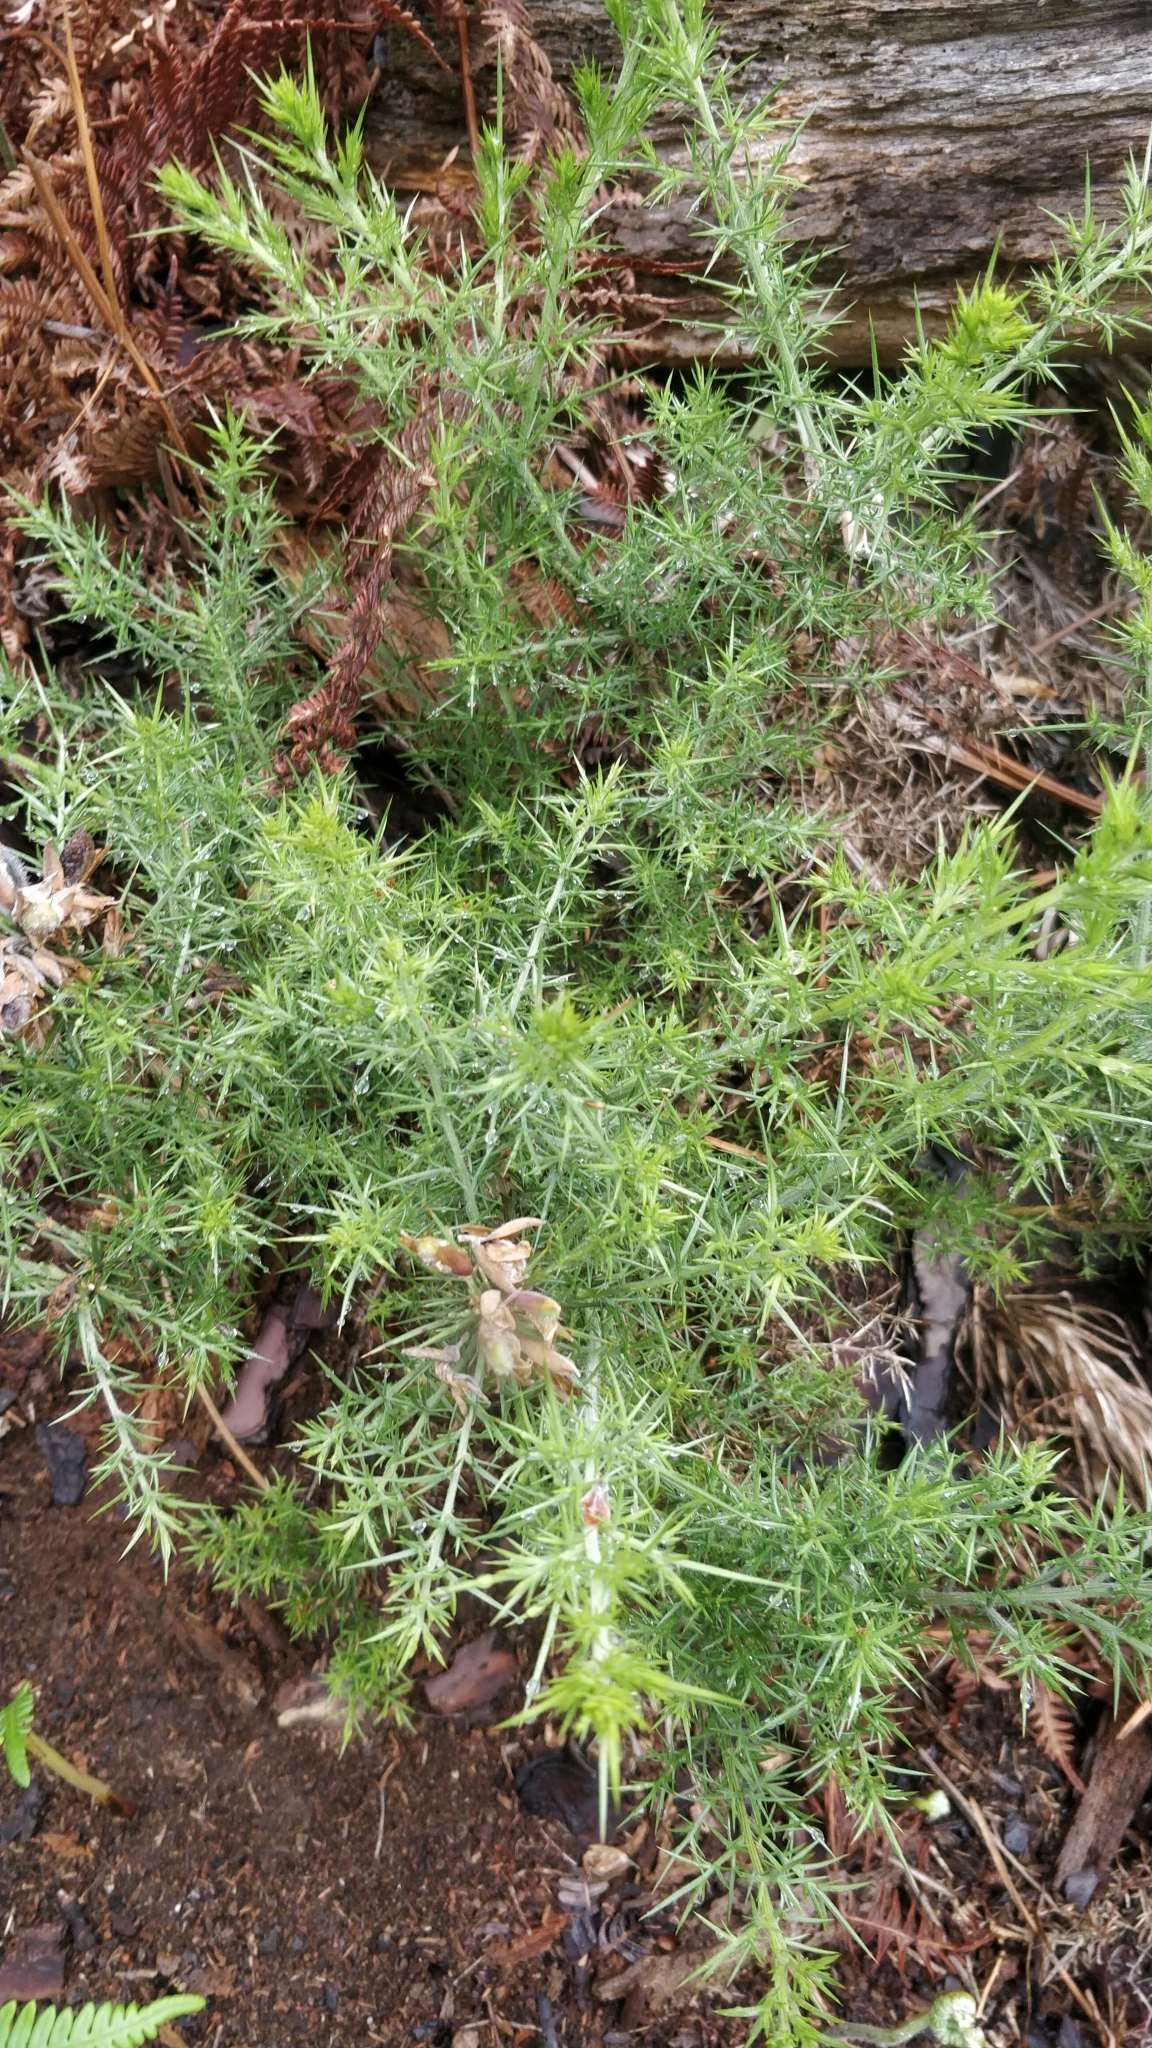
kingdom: Plantae
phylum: Tracheophyta
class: Magnoliopsida
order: Fabales
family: Fabaceae
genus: Ulex
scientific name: Ulex europaeus
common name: Common gorse
